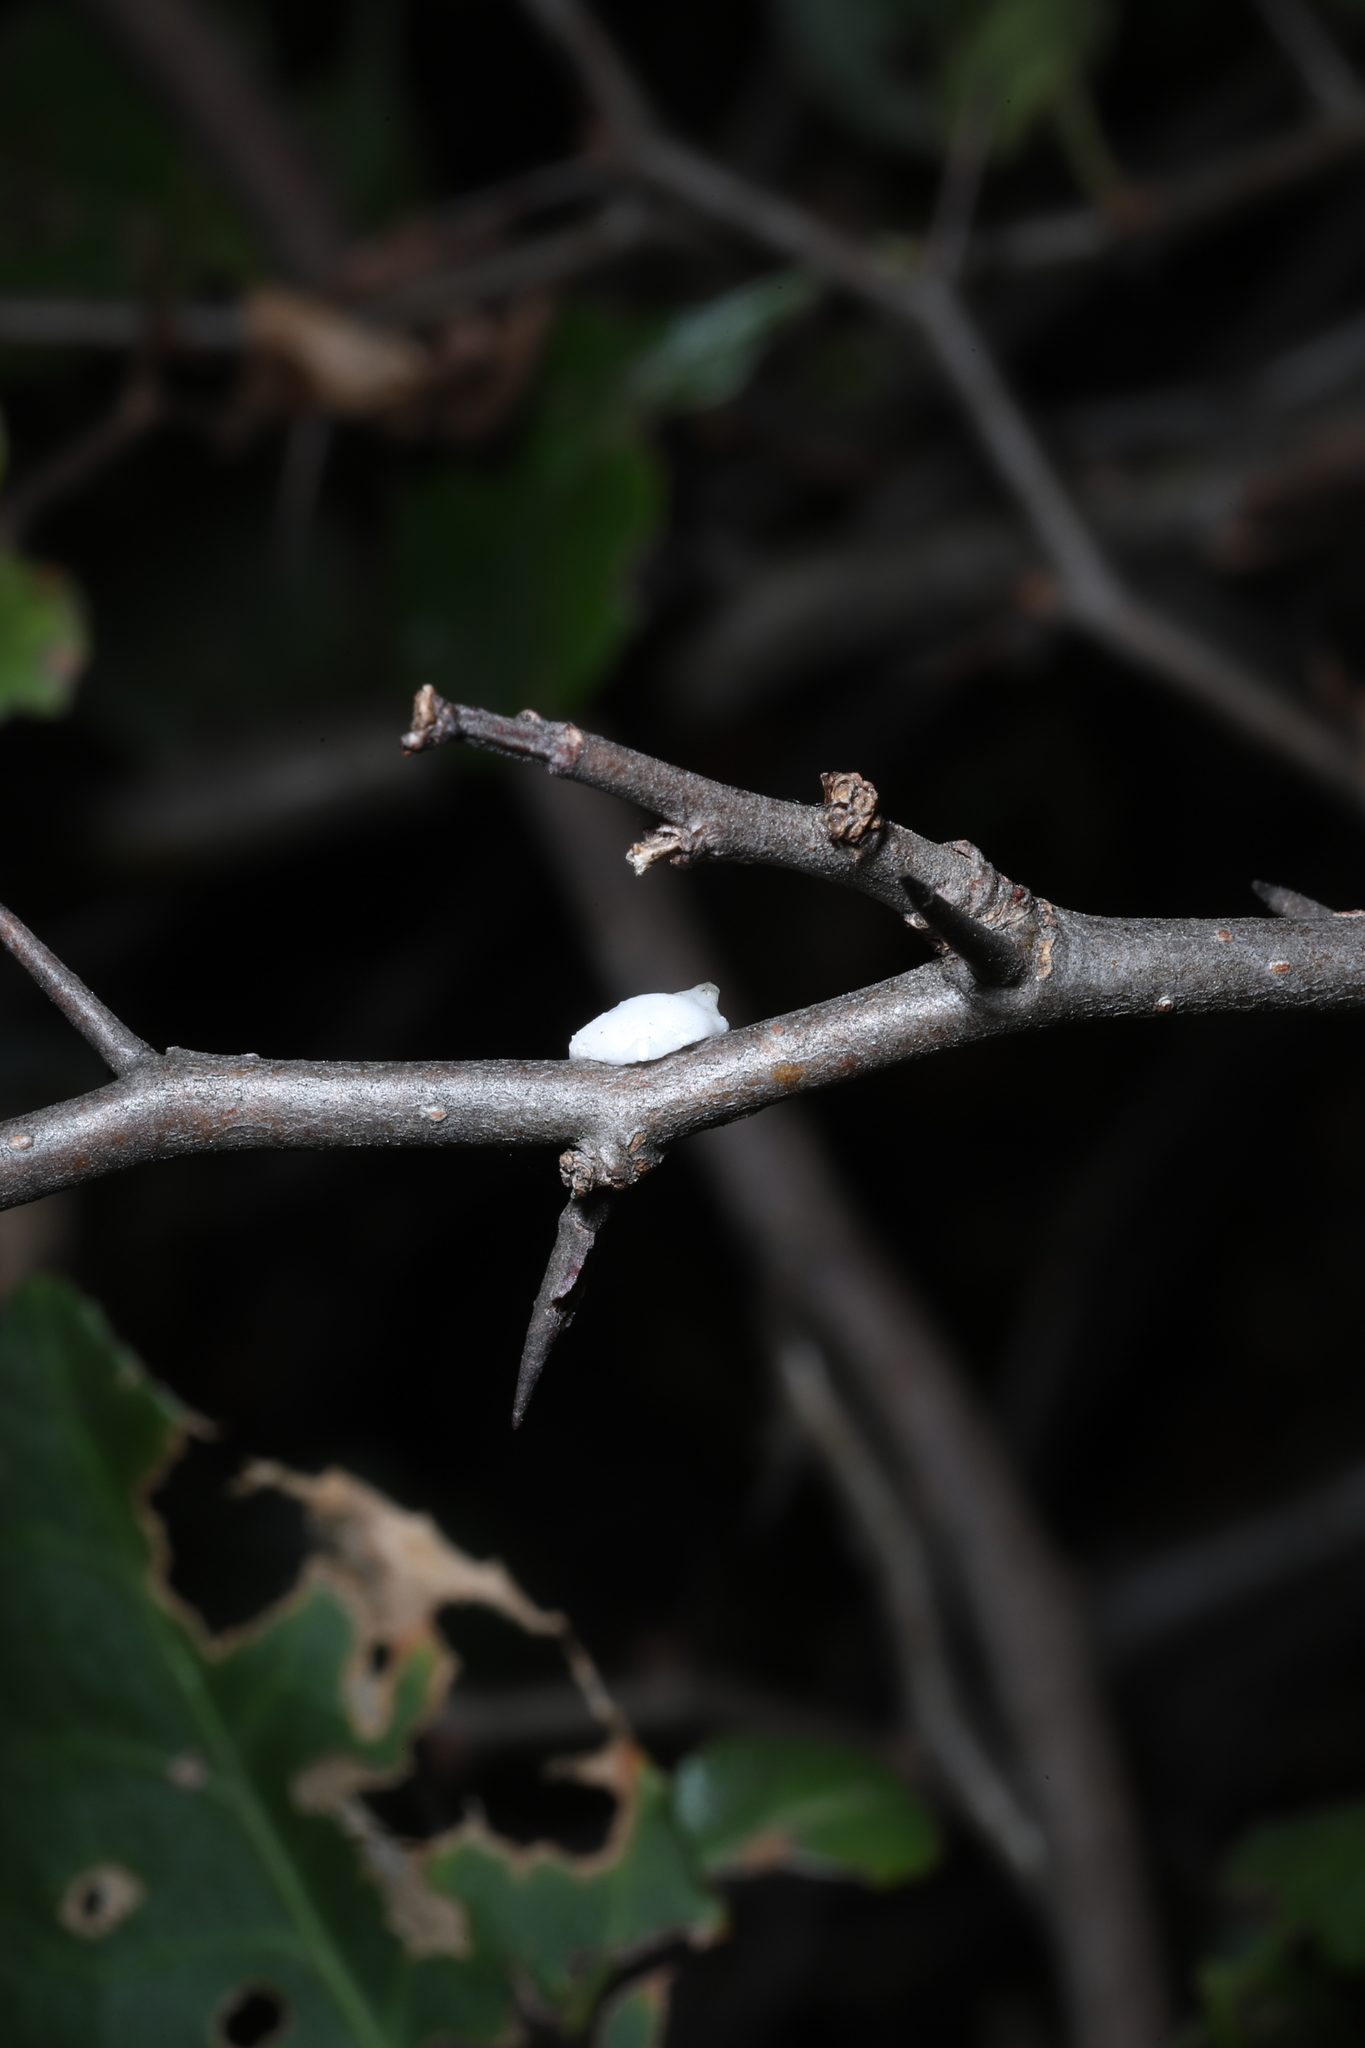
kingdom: Animalia
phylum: Arthropoda
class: Insecta
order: Hemiptera
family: Coccidae
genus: Ceroplastes
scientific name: Ceroplastes ceriferus
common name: Indian wax scale
